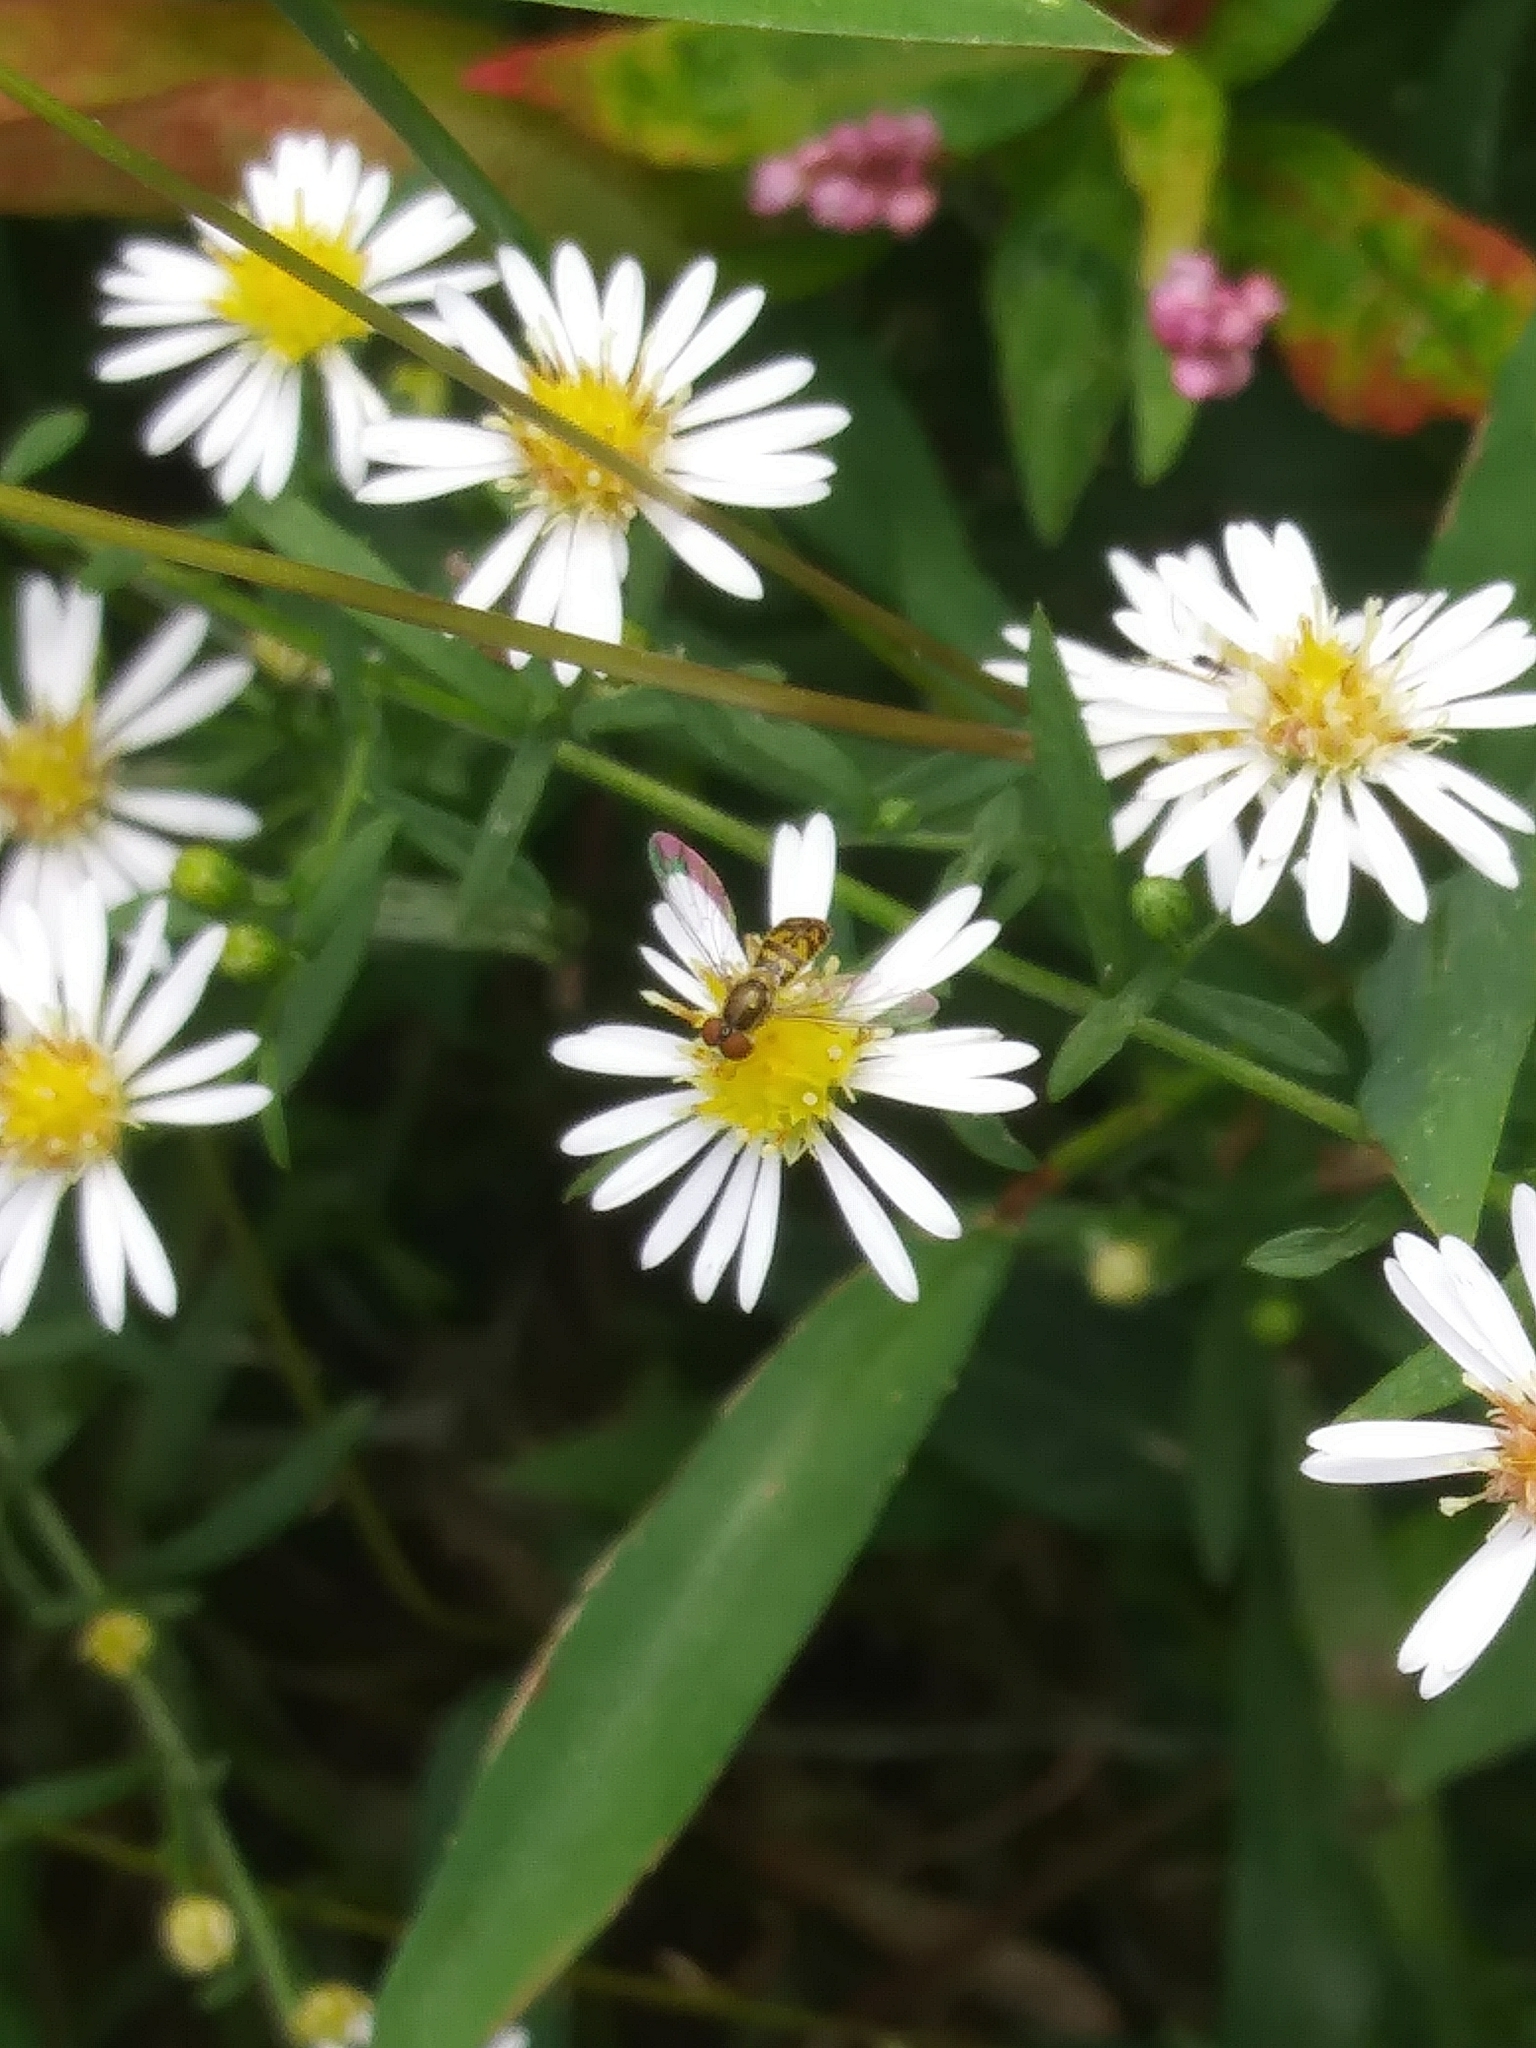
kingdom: Animalia
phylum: Arthropoda
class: Insecta
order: Diptera
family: Syrphidae
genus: Toxomerus
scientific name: Toxomerus marginatus
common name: Syrphid fly
